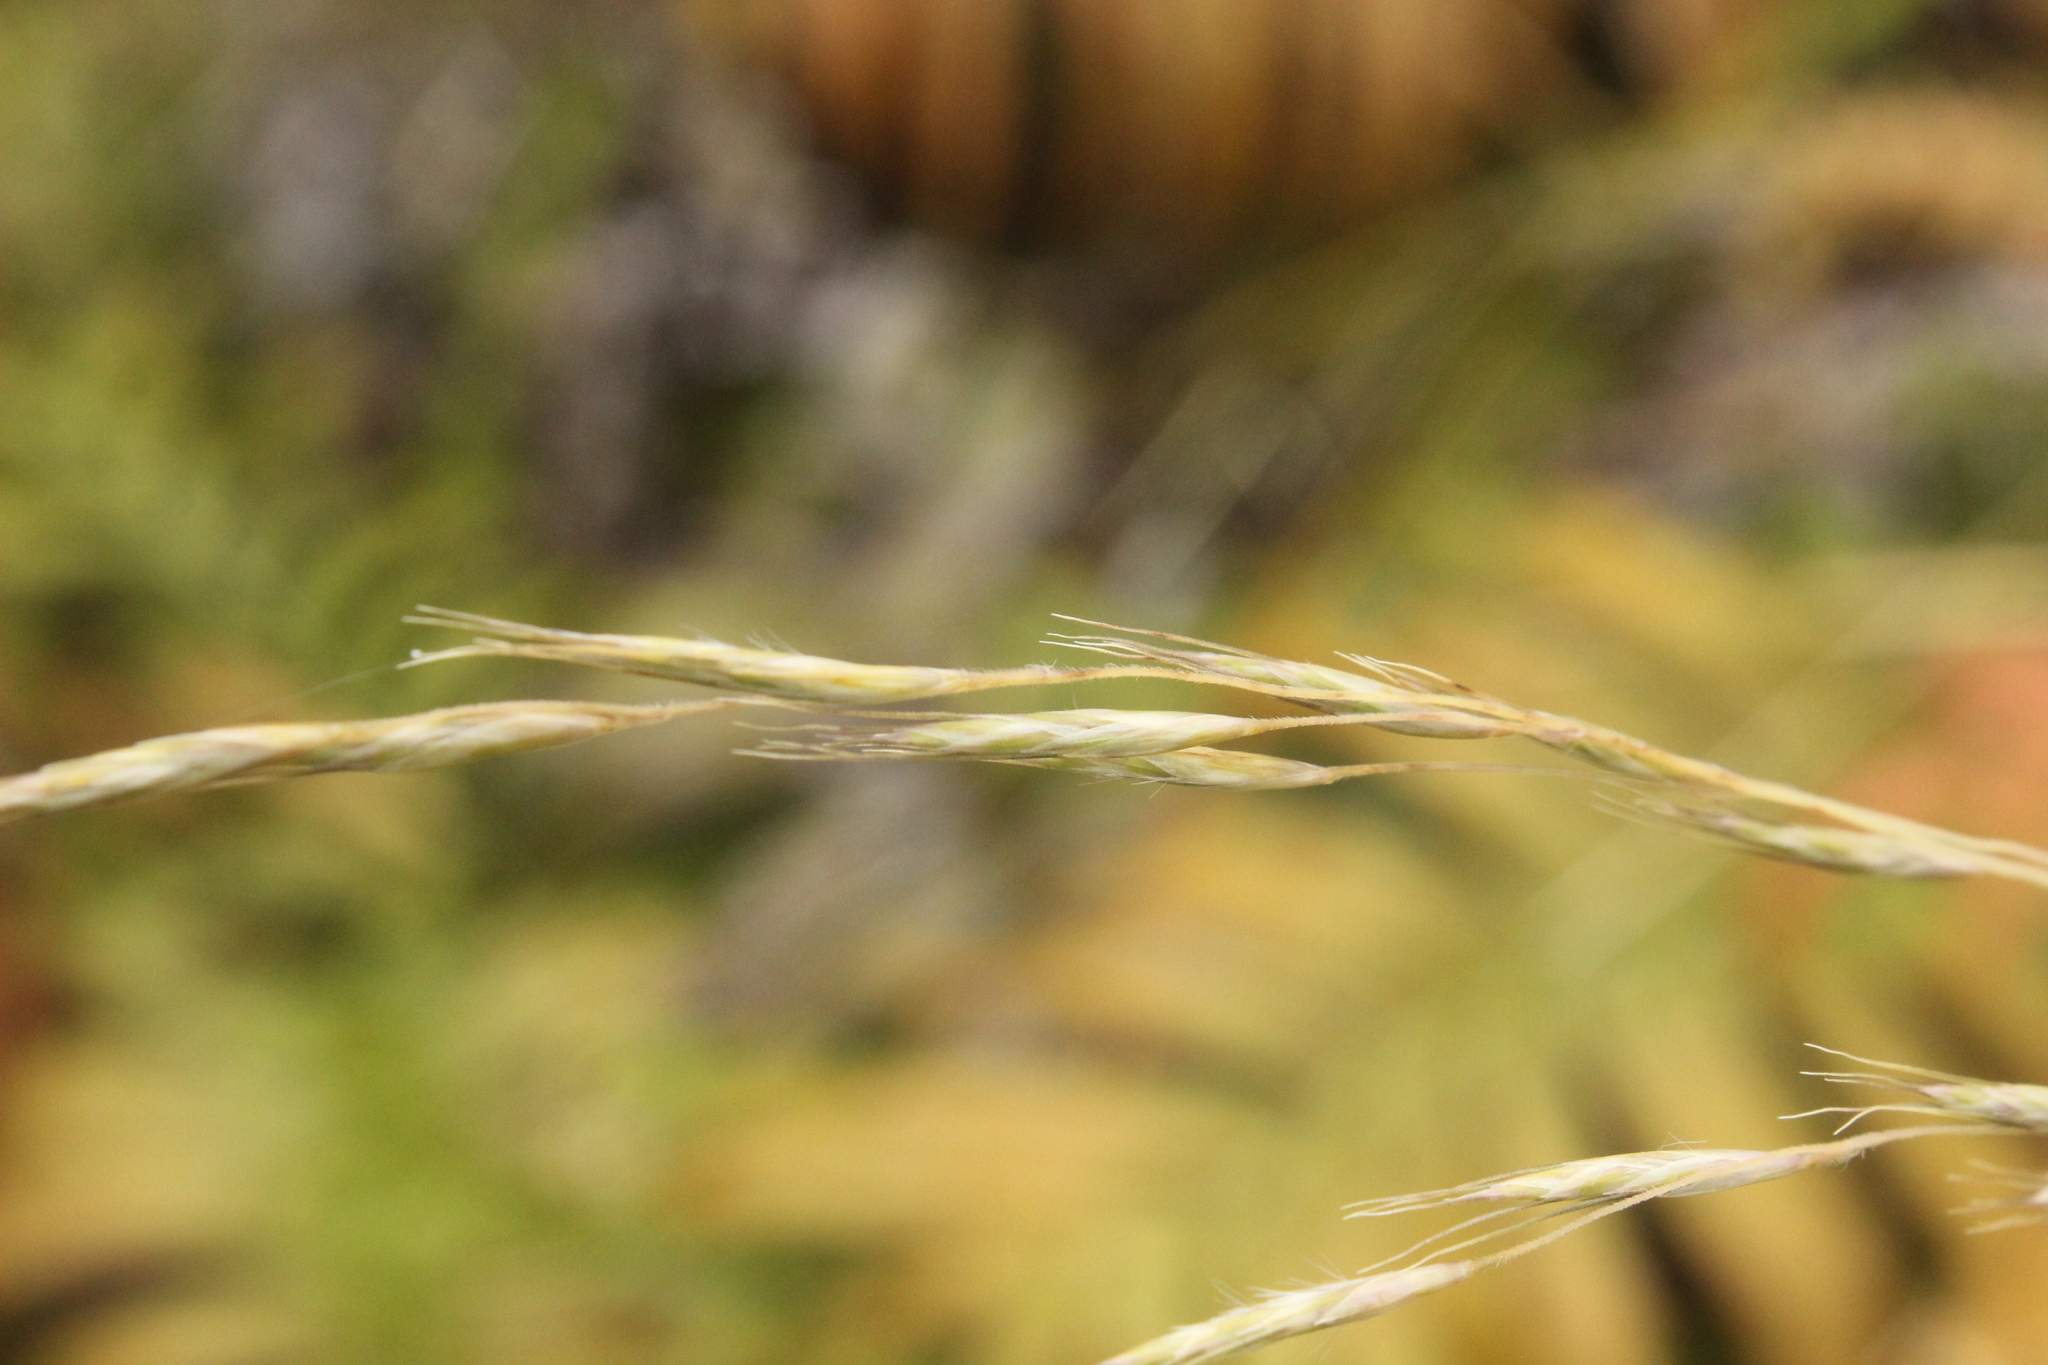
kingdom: Plantae
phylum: Tracheophyta
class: Liliopsida
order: Poales
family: Poaceae
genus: Chionochloa
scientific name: Chionochloa conspicua
